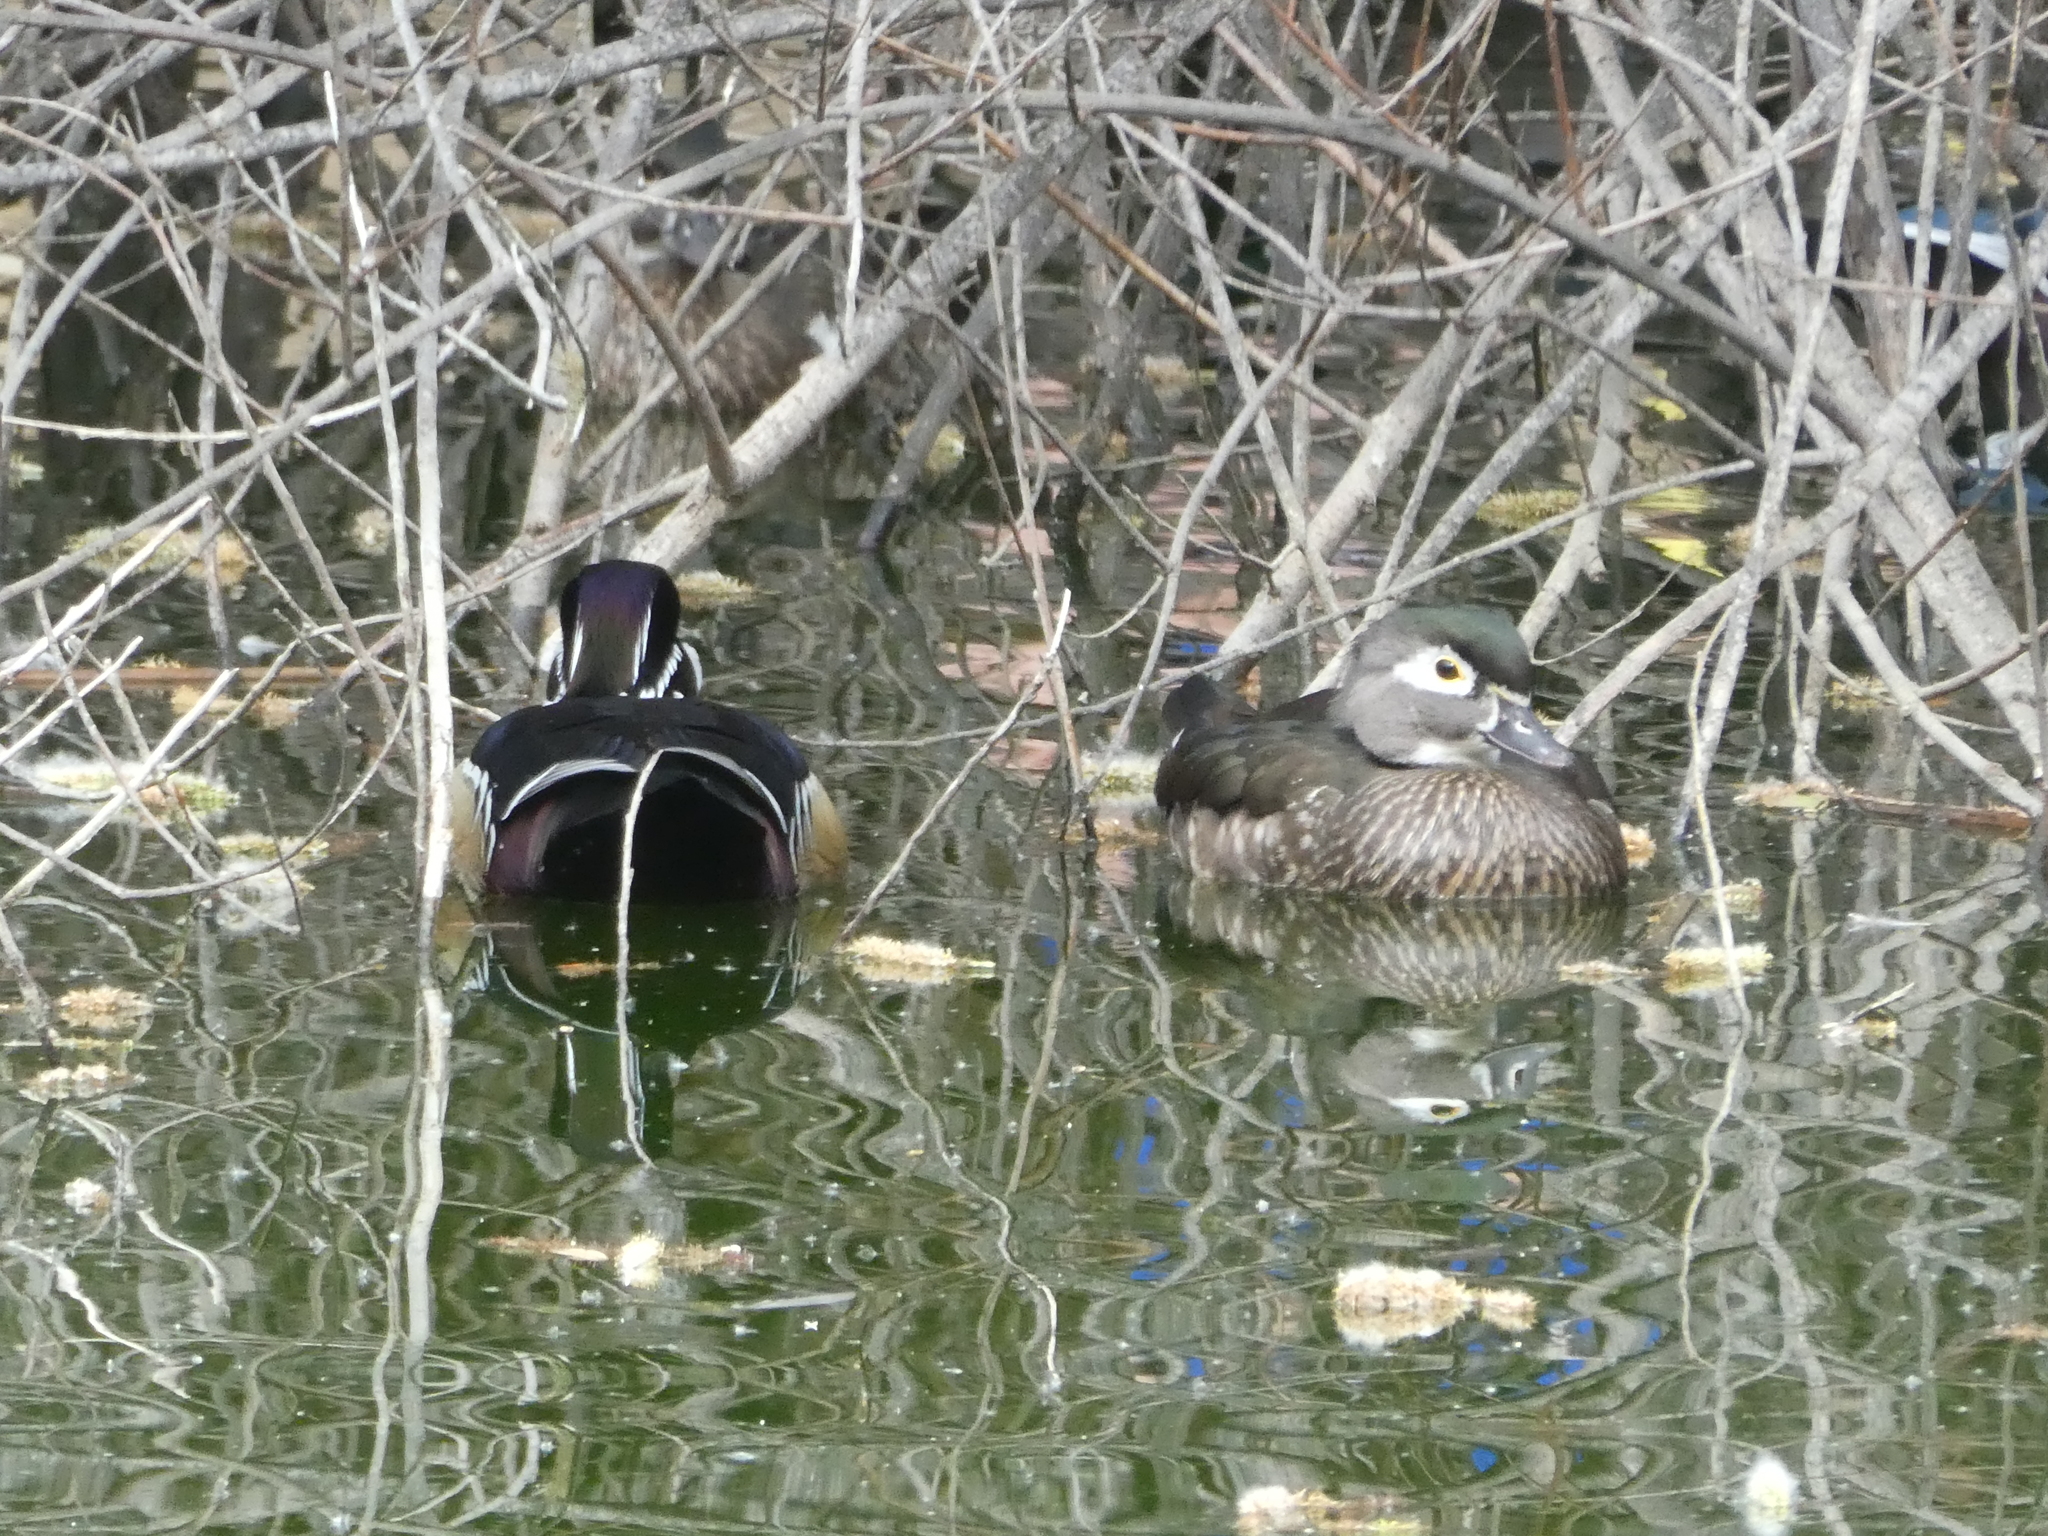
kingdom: Animalia
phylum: Chordata
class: Aves
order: Anseriformes
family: Anatidae
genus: Aix
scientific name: Aix sponsa
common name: Wood duck
